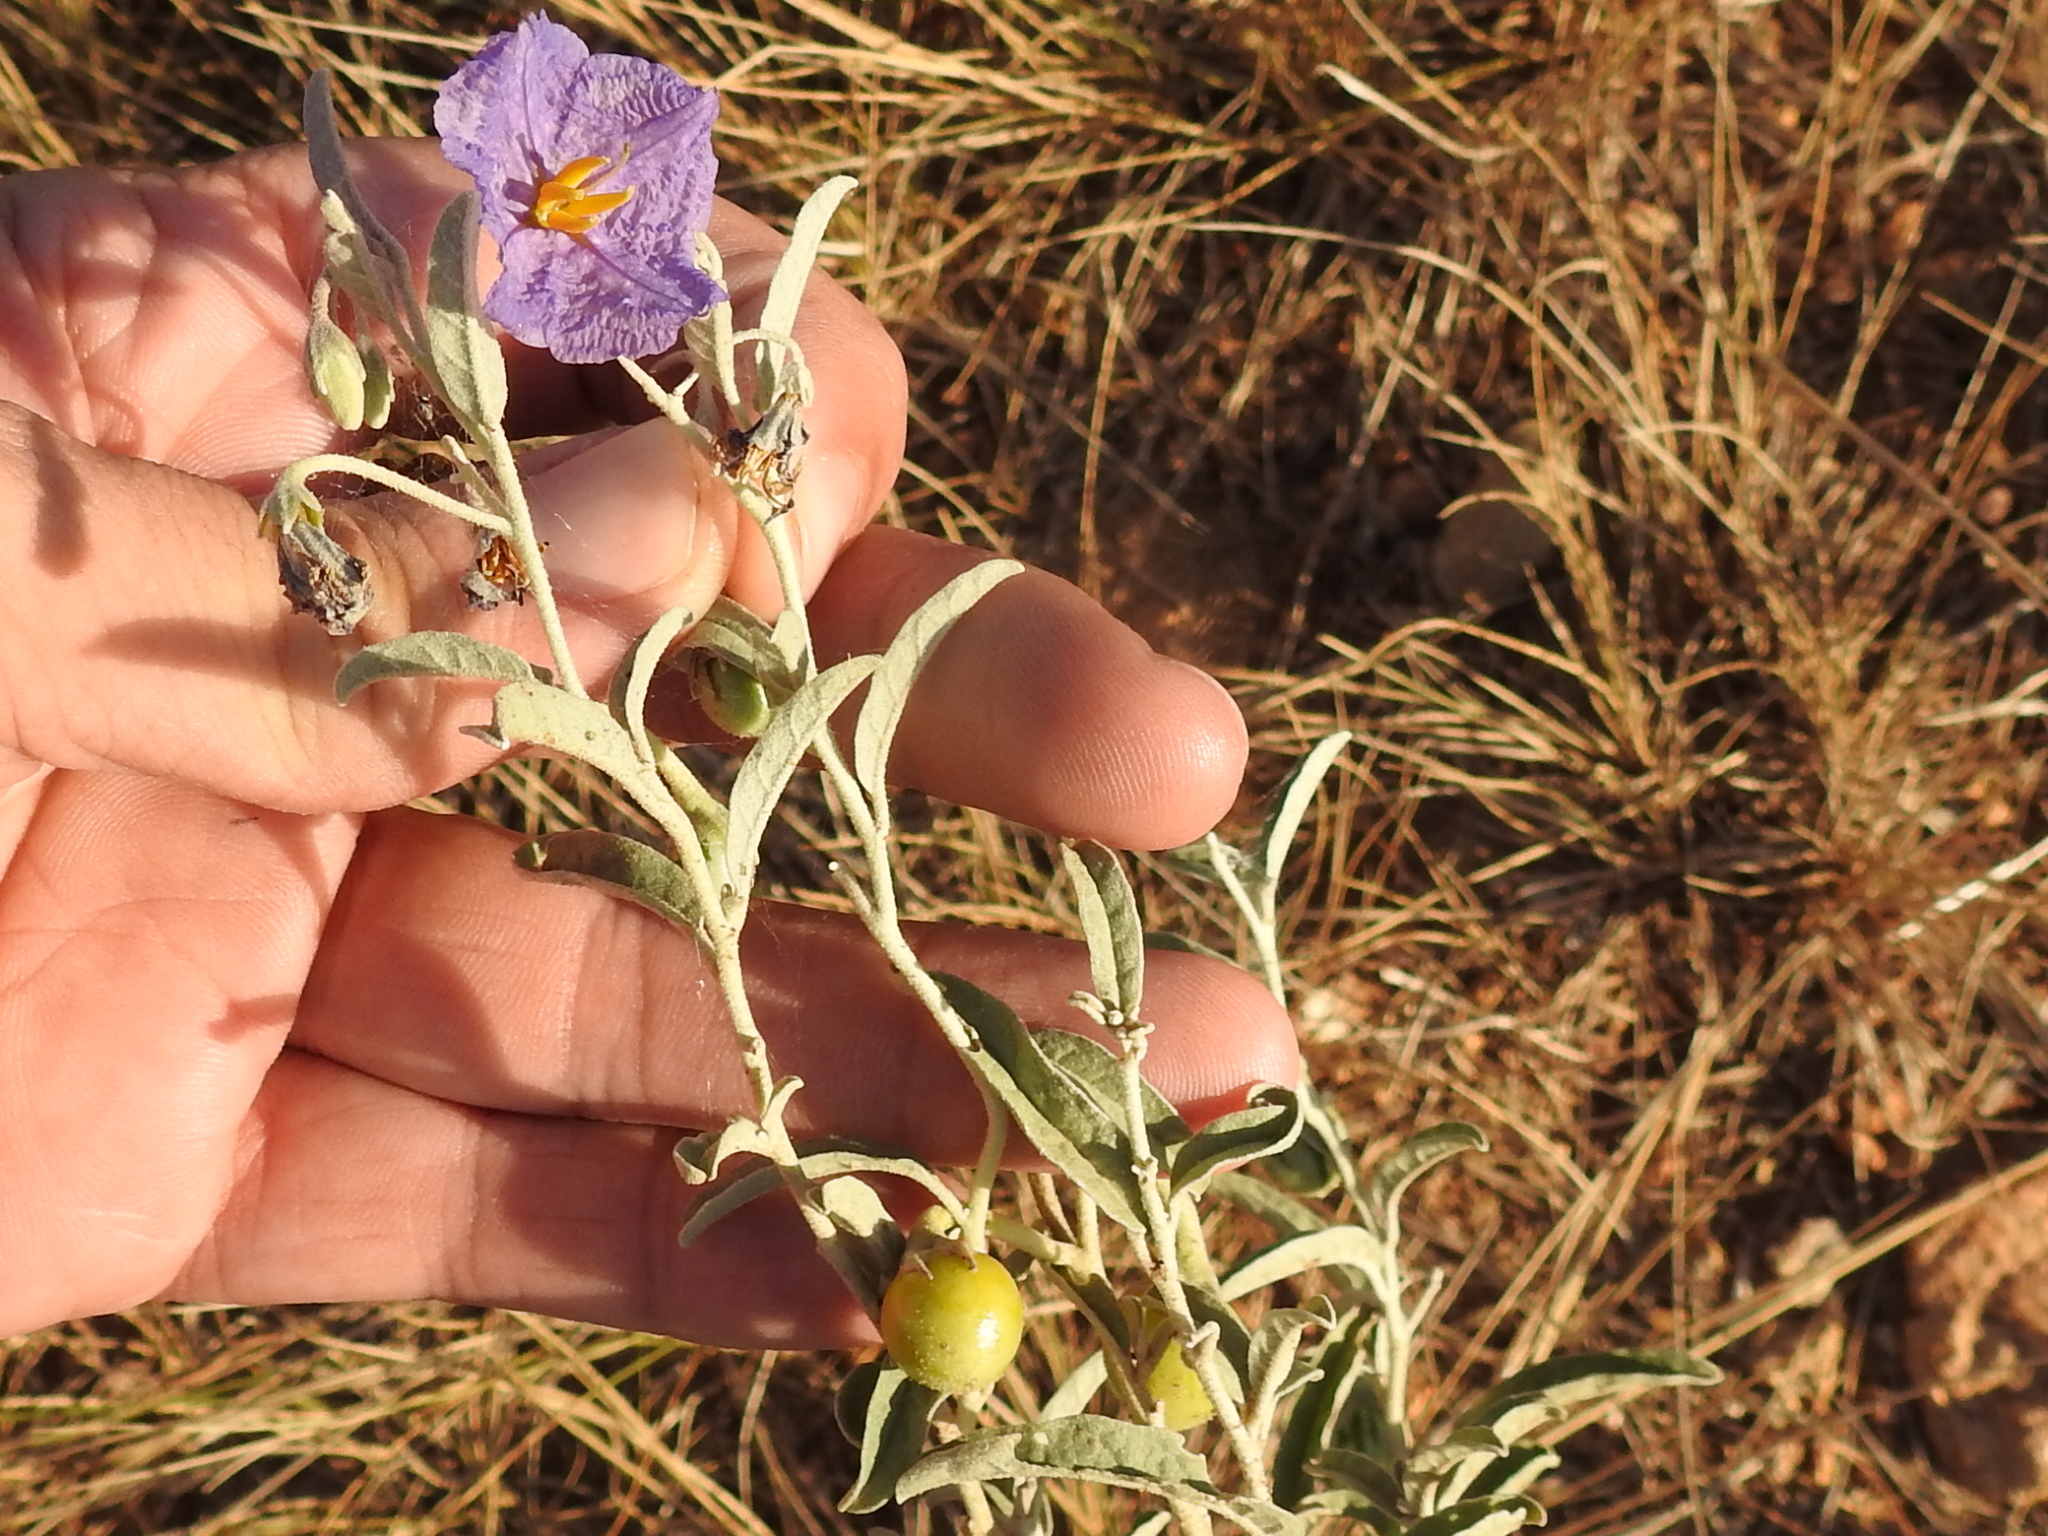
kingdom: Plantae
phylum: Tracheophyta
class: Magnoliopsida
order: Solanales
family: Solanaceae
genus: Solanum
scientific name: Solanum elaeagnifolium
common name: Silverleaf nightshade
